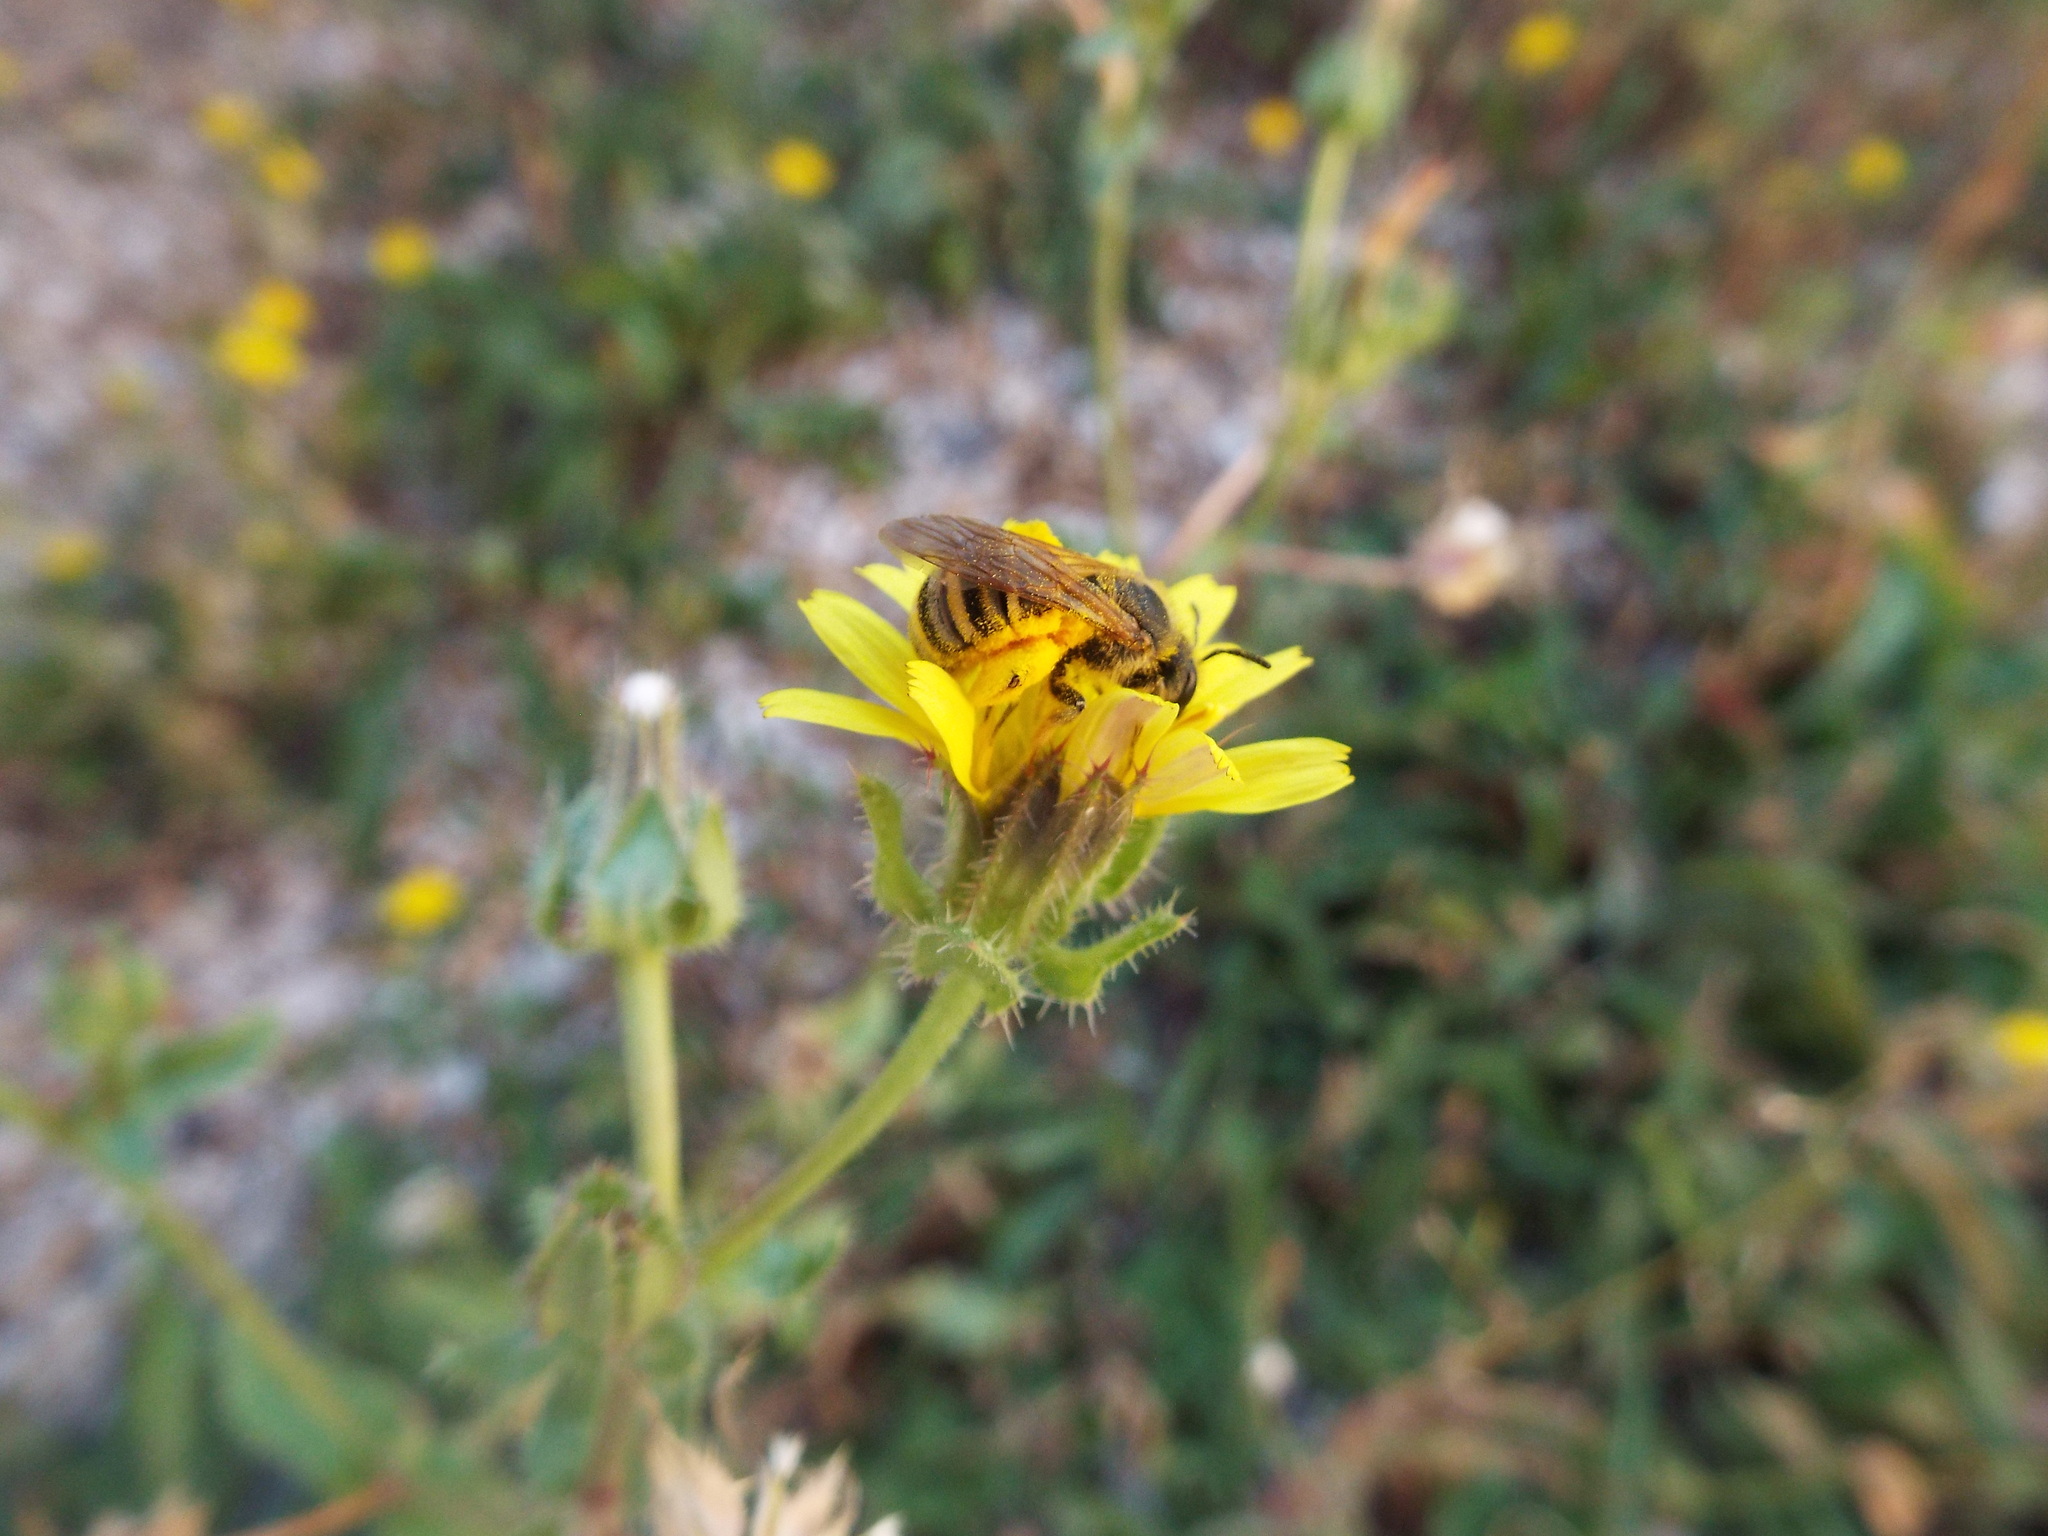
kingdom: Animalia
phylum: Arthropoda
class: Insecta
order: Hymenoptera
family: Halictidae
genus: Halictus
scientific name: Halictus scabiosae
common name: Great banded furrow bee
